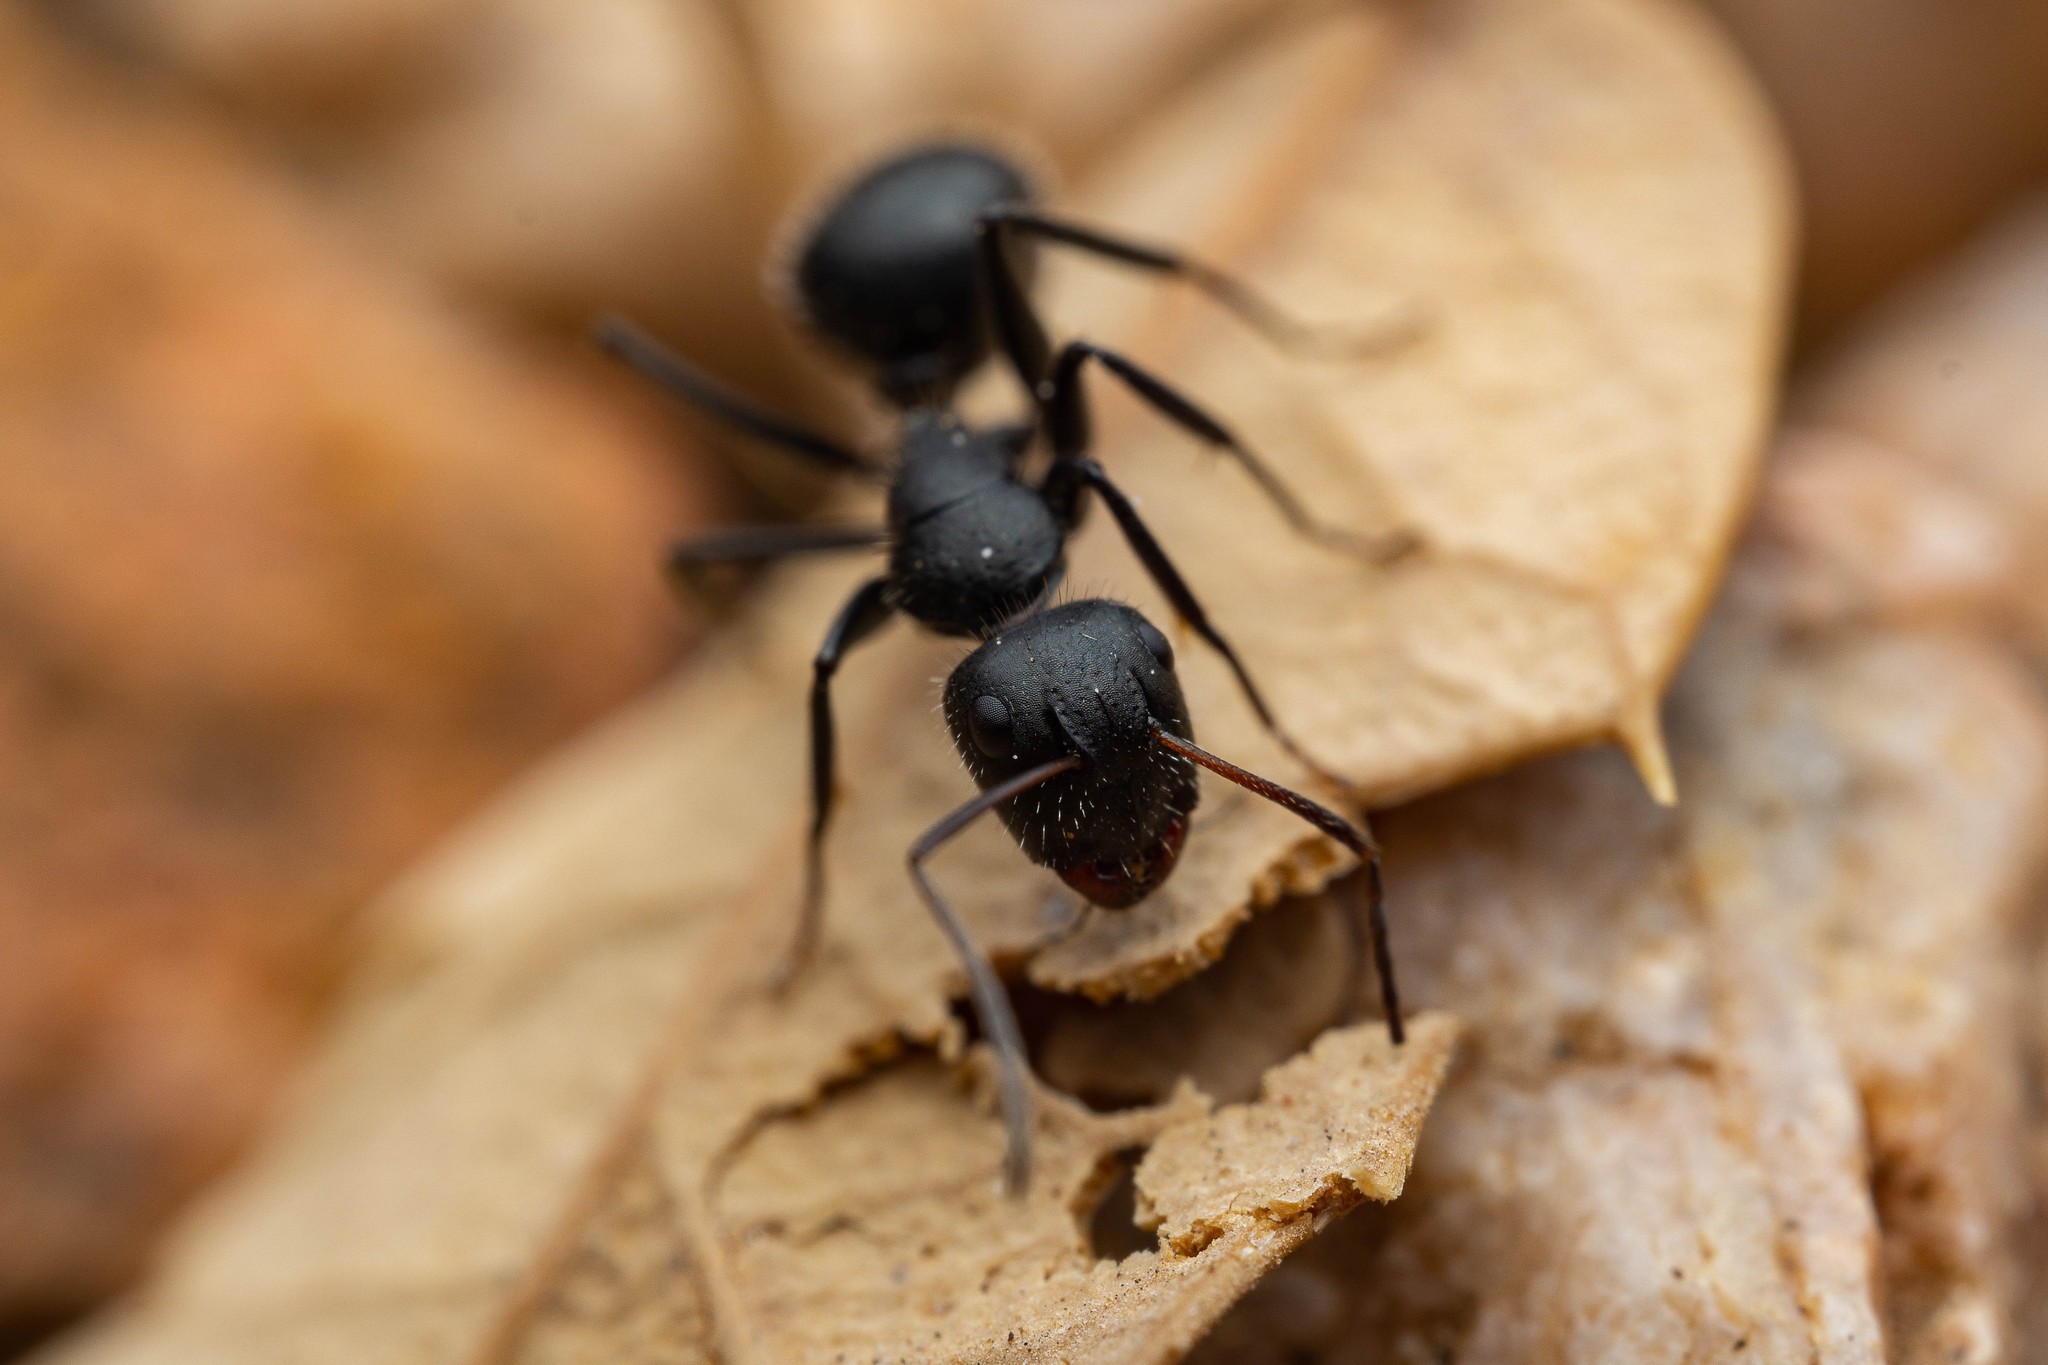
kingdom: Animalia
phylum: Arthropoda
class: Insecta
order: Hymenoptera
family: Formicidae
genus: Camponotus
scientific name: Camponotus mina
